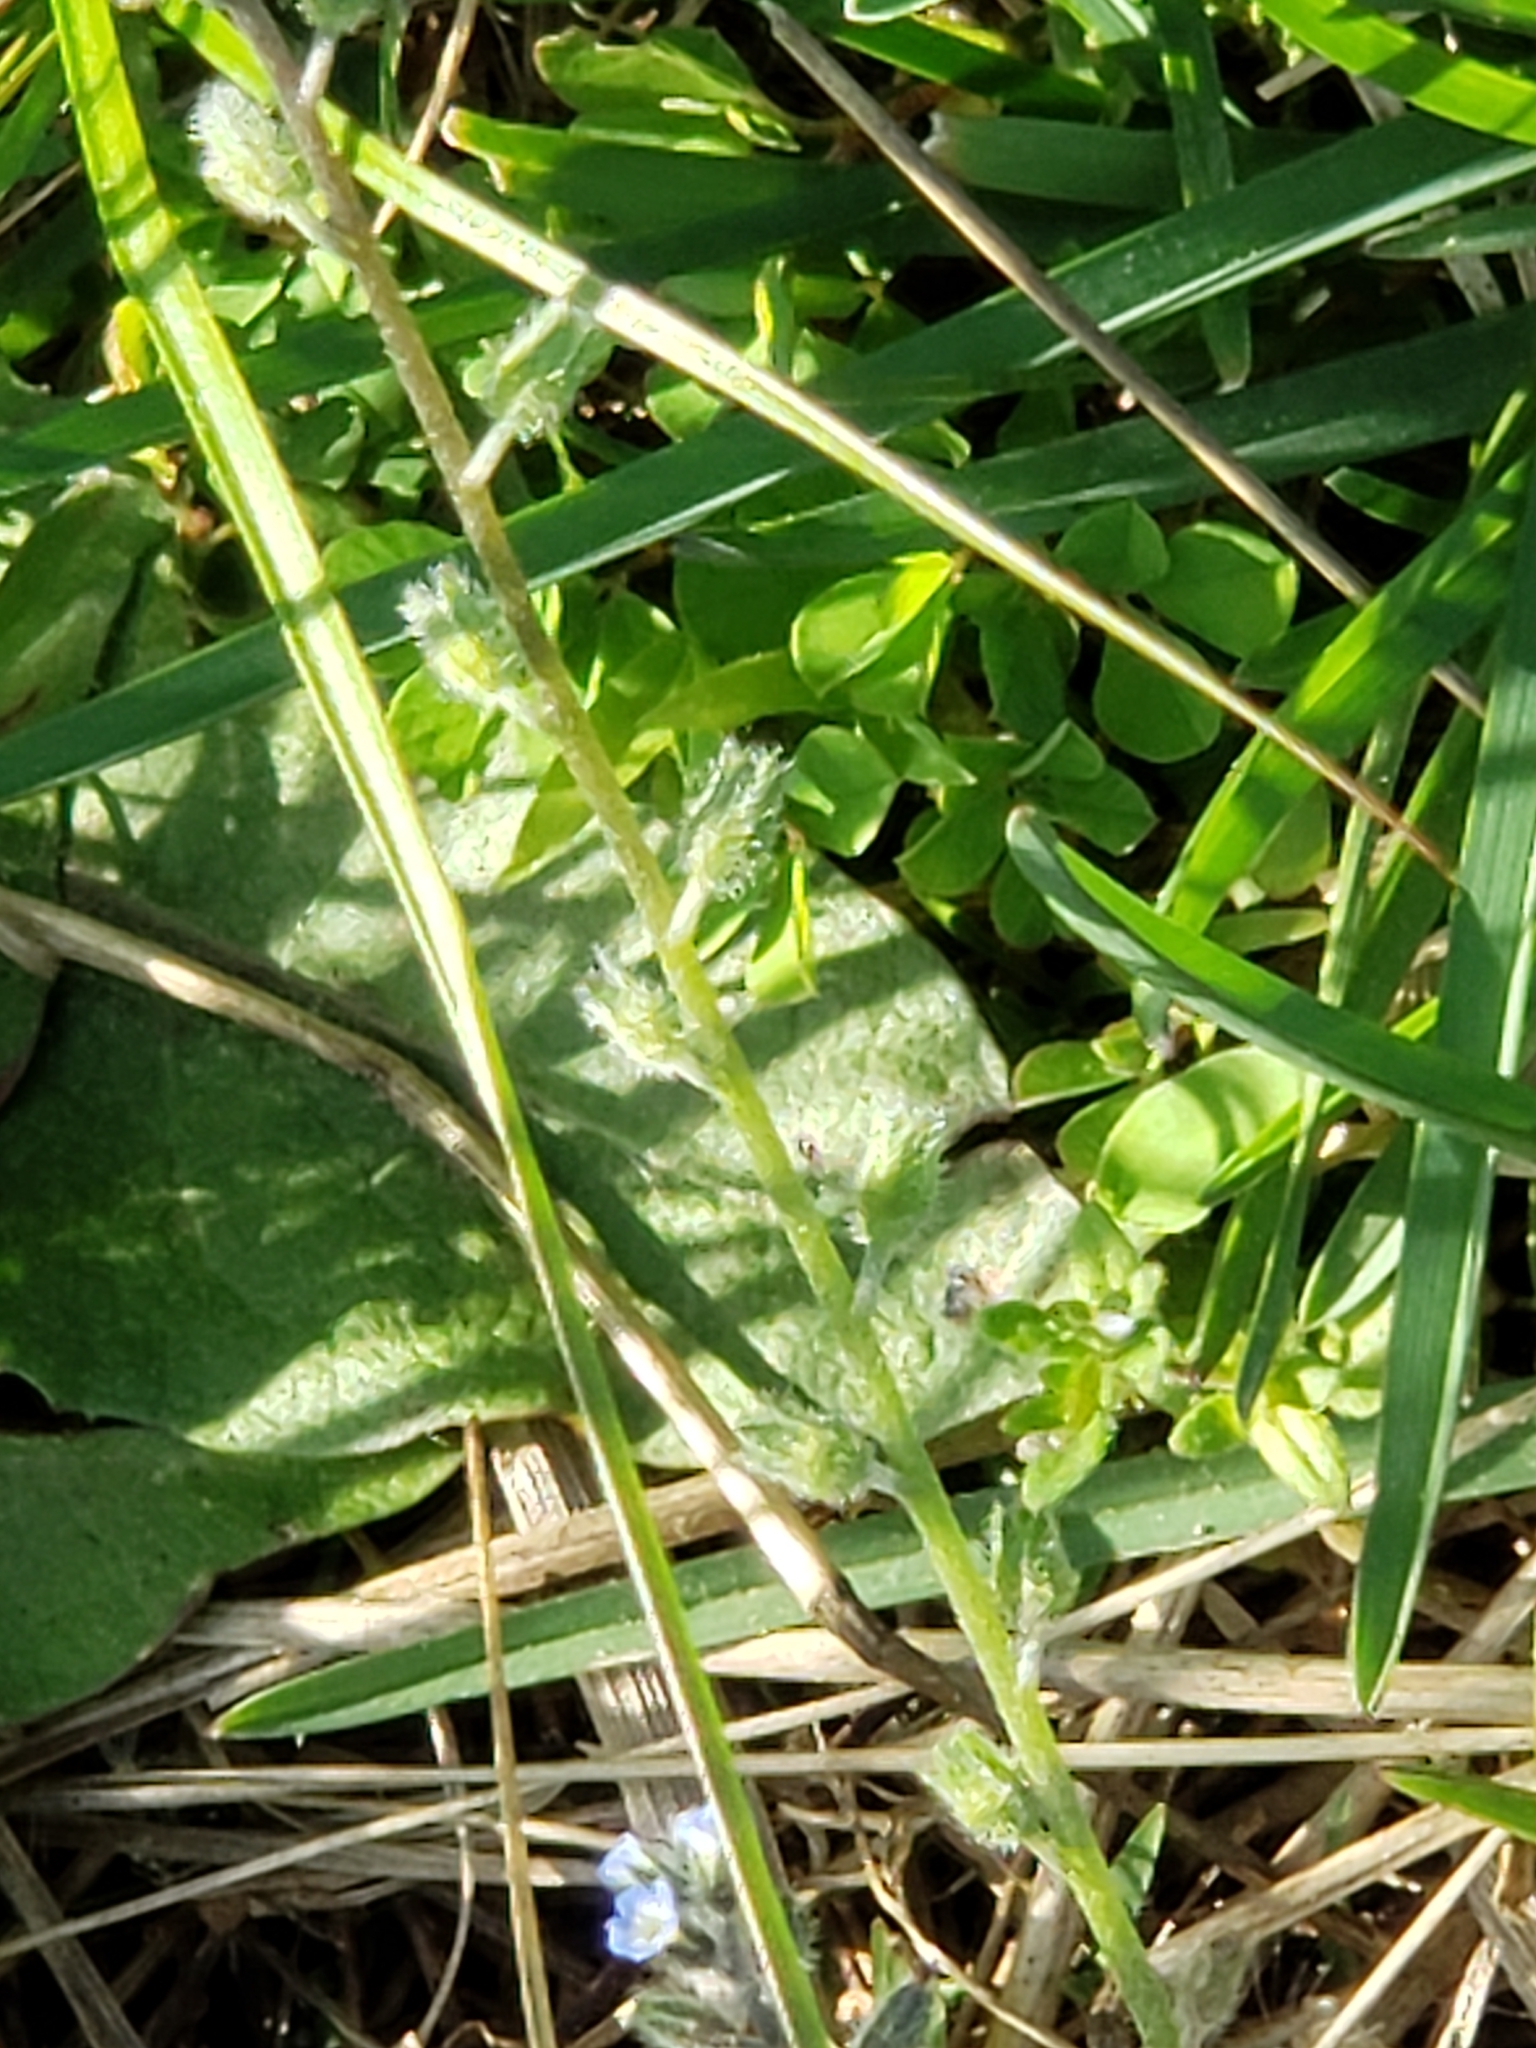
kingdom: Plantae
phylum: Tracheophyta
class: Magnoliopsida
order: Boraginales
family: Boraginaceae
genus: Myosotis
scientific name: Myosotis ramosissima
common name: Early forget-me-not
